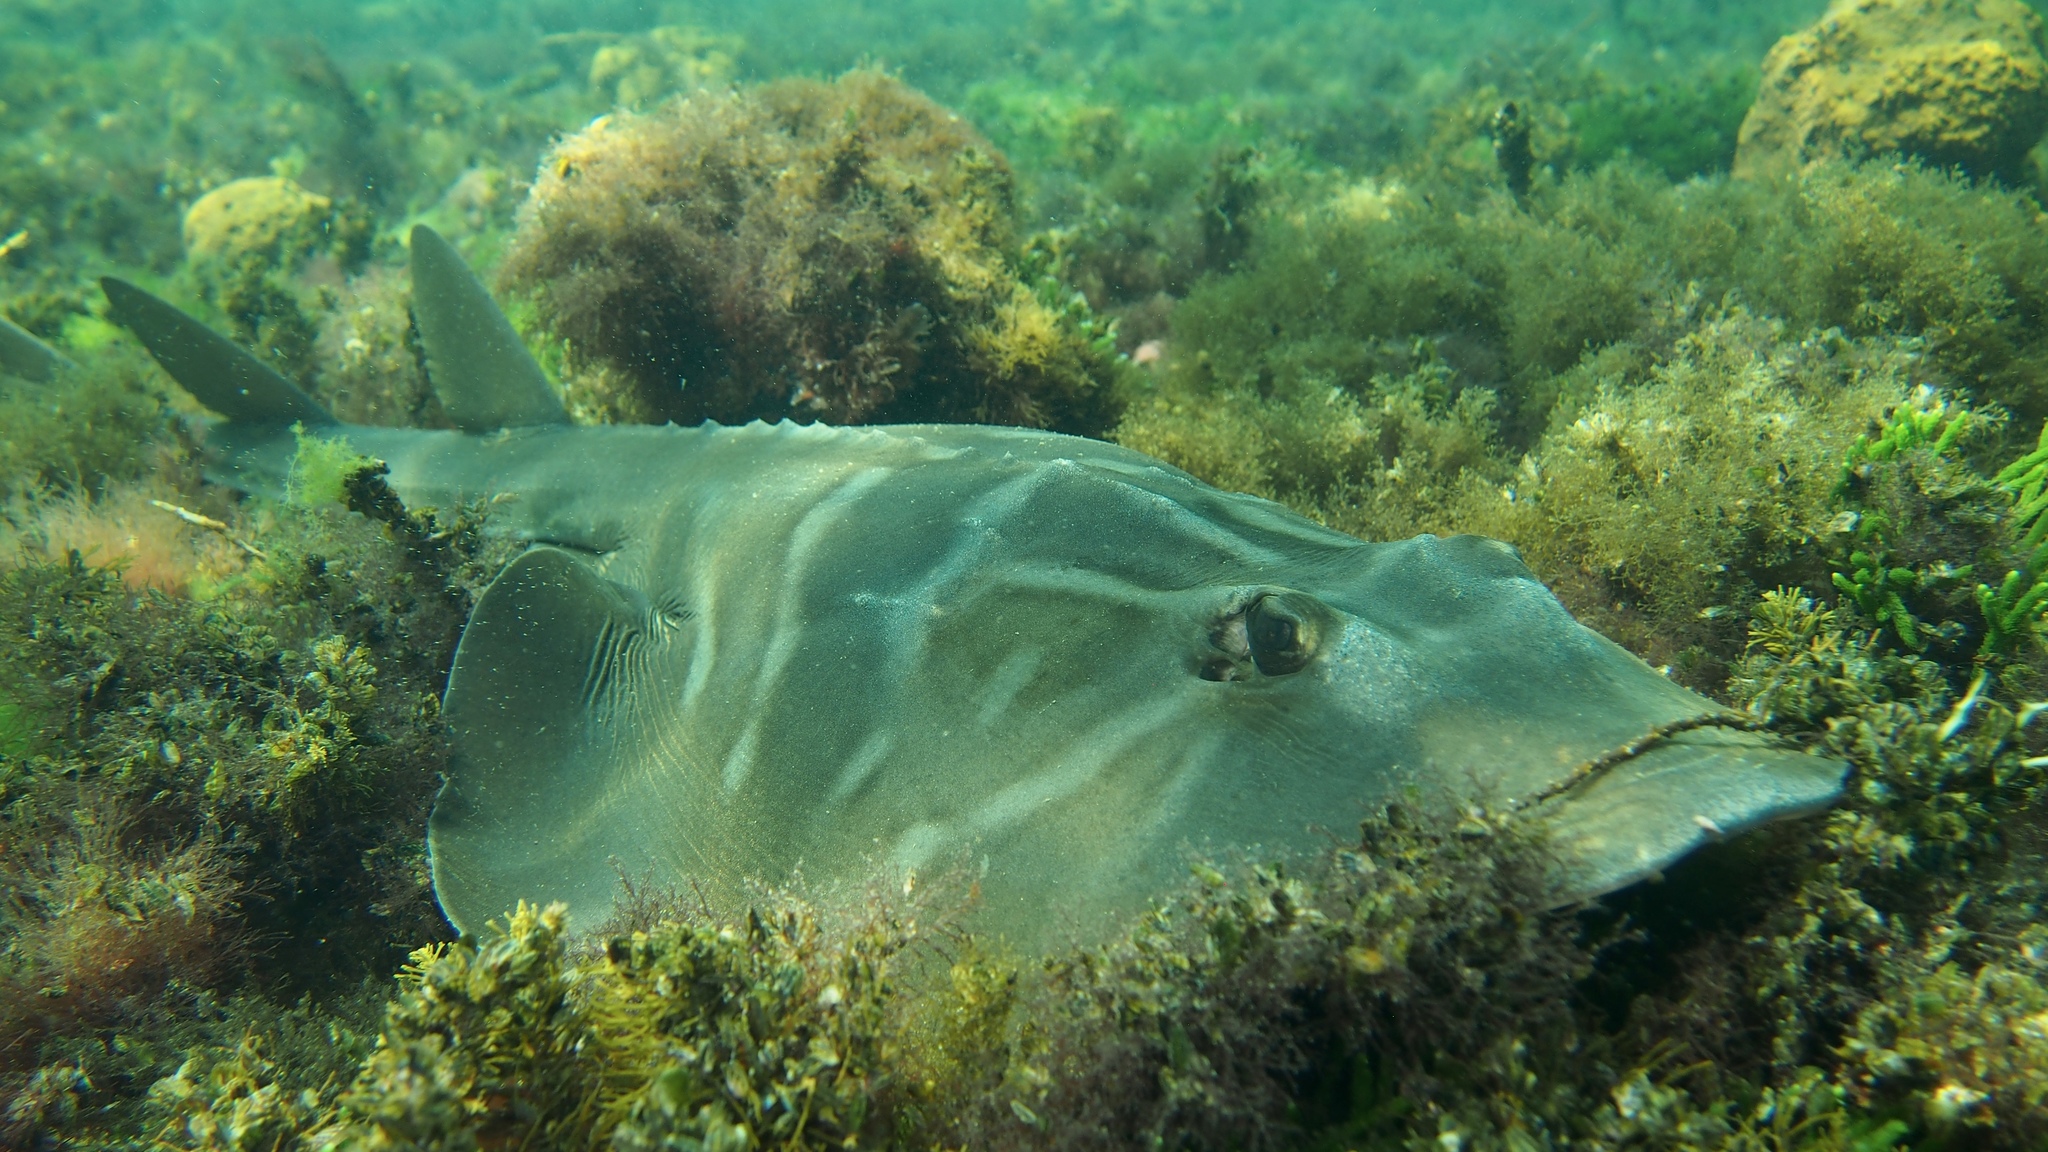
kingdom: Animalia
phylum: Chordata
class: Elasmobranchii
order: Rhinopristiformes
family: Rhinobatidae
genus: Trygonorrhina
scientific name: Trygonorrhina dumerilii
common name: Banjo shark
